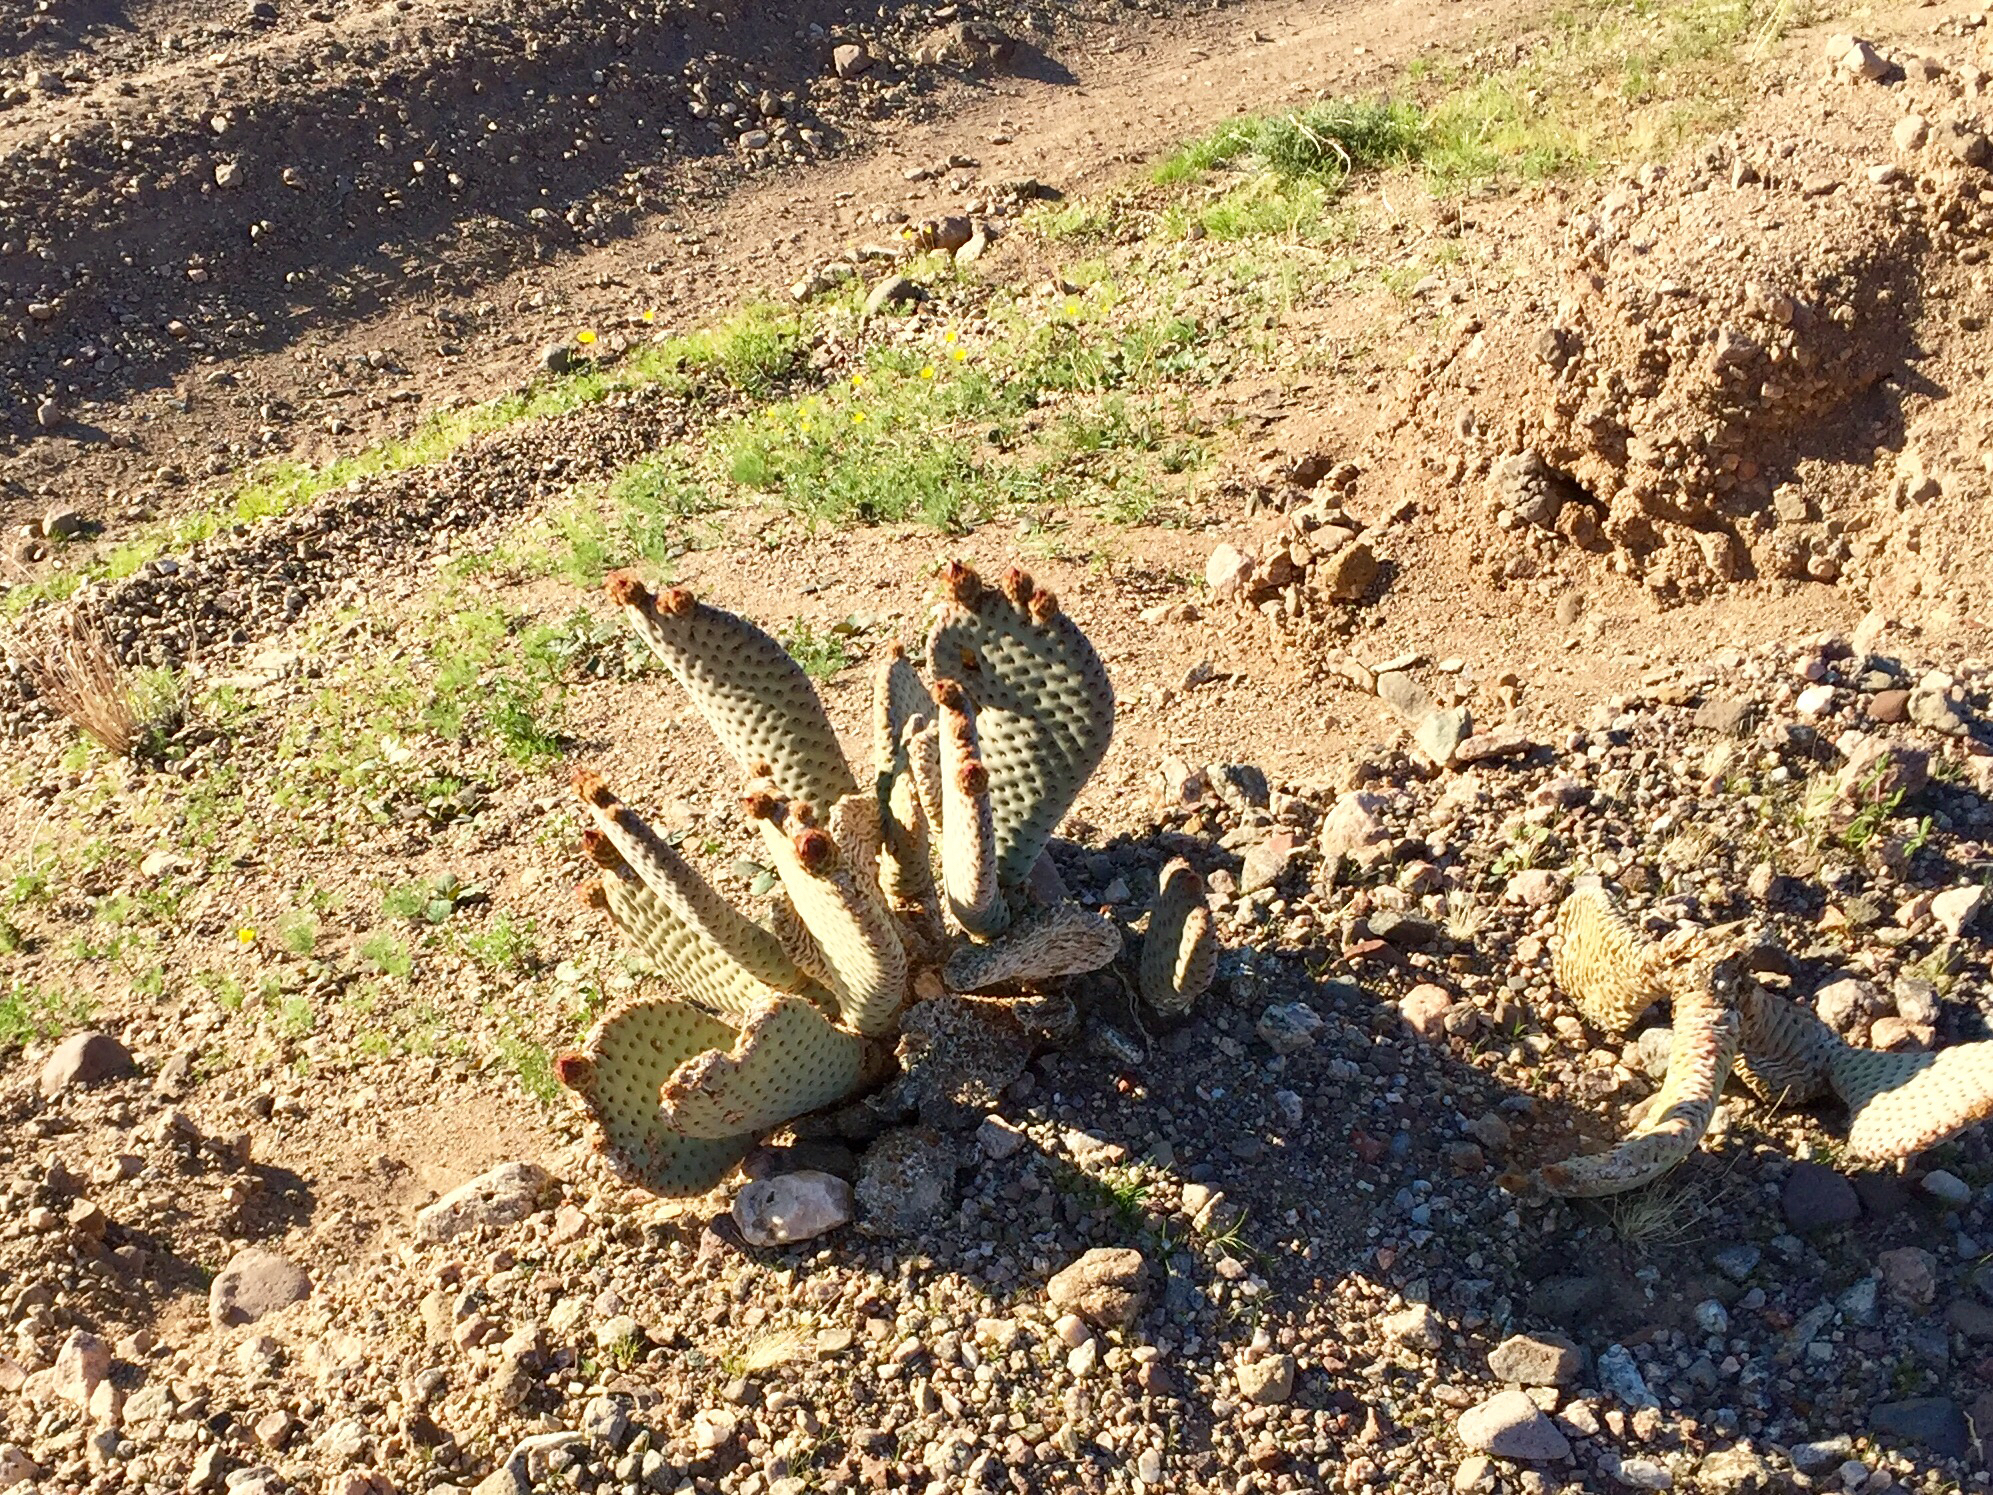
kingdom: Plantae
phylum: Tracheophyta
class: Magnoliopsida
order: Caryophyllales
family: Cactaceae
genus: Opuntia
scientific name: Opuntia basilaris
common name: Beavertail prickly-pear
